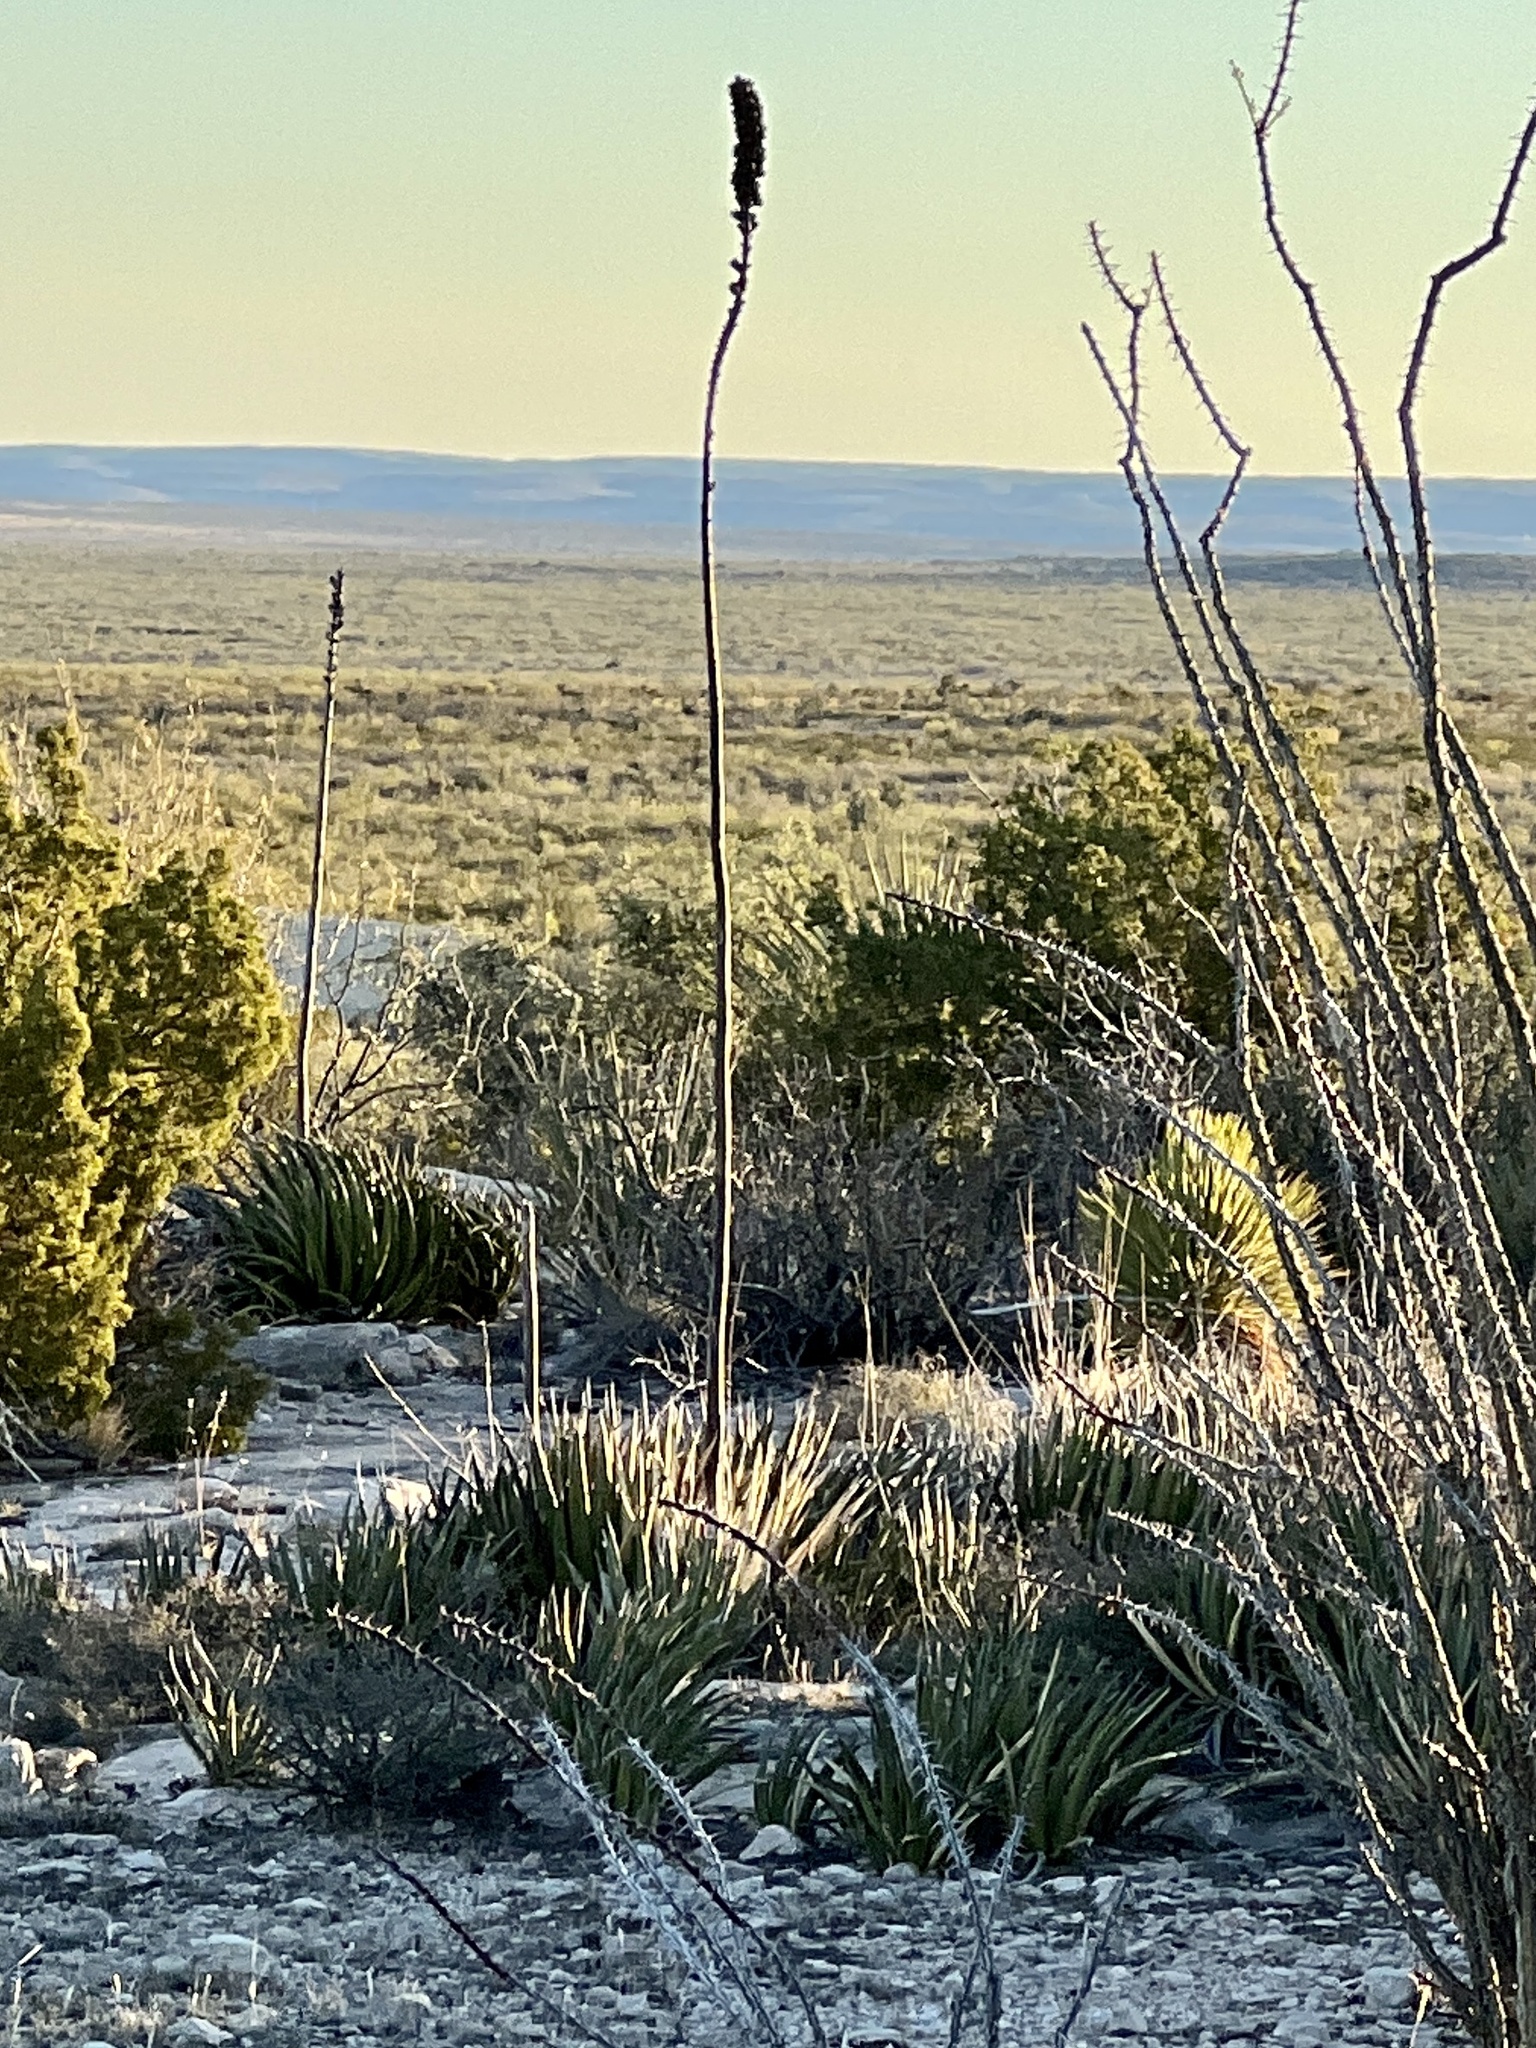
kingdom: Plantae
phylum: Tracheophyta
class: Liliopsida
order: Asparagales
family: Asparagaceae
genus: Agave
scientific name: Agave lechuguilla
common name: Lecheguilla agave
